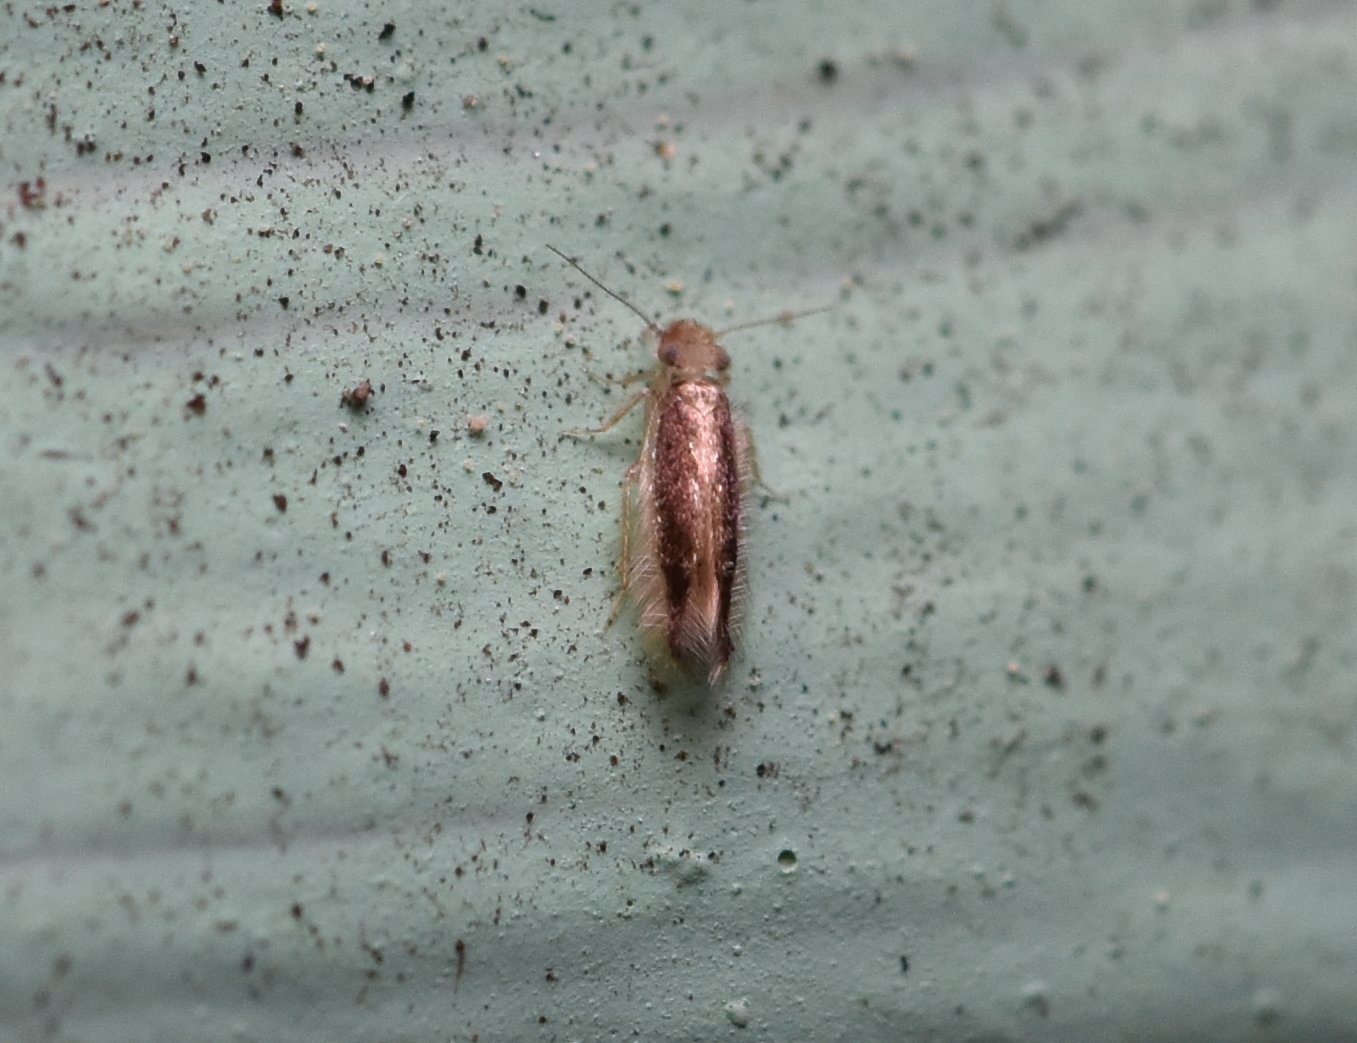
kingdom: Animalia
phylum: Arthropoda
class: Insecta
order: Psocodea
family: Lepidopsocidae
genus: Echmepteryx
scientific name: Echmepteryx madagascariensis
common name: Bark lice
